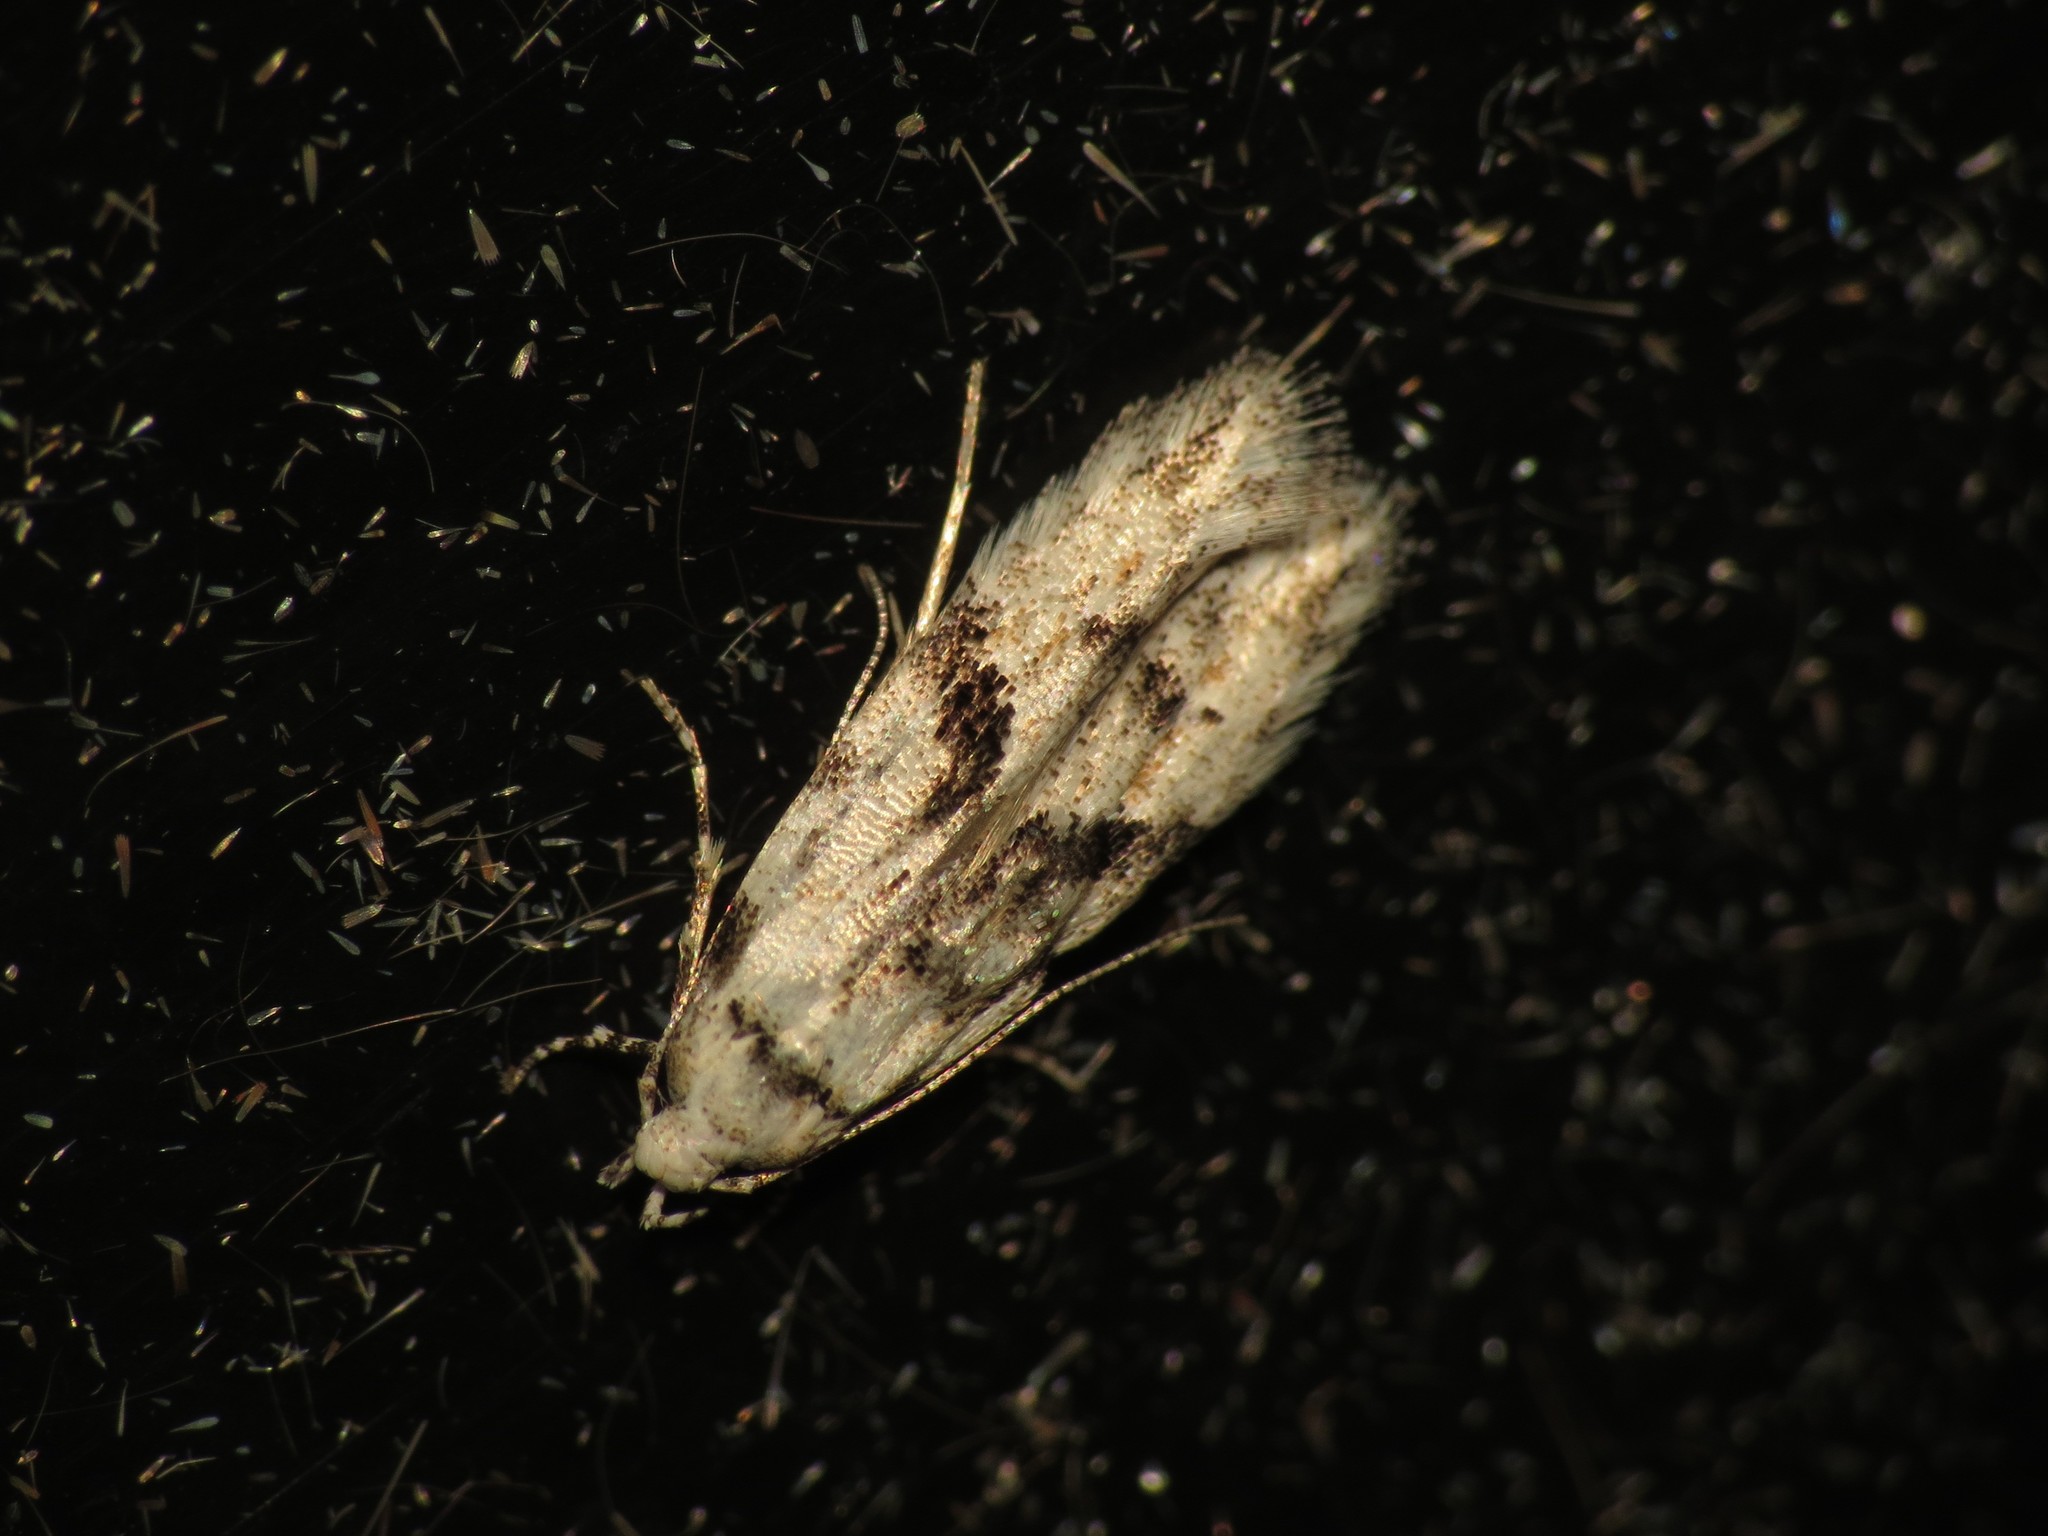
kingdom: Animalia
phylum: Arthropoda
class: Insecta
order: Lepidoptera
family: Gelechiidae
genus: Stenolechia
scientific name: Stenolechia gemmella
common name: Black-dotted groundling
